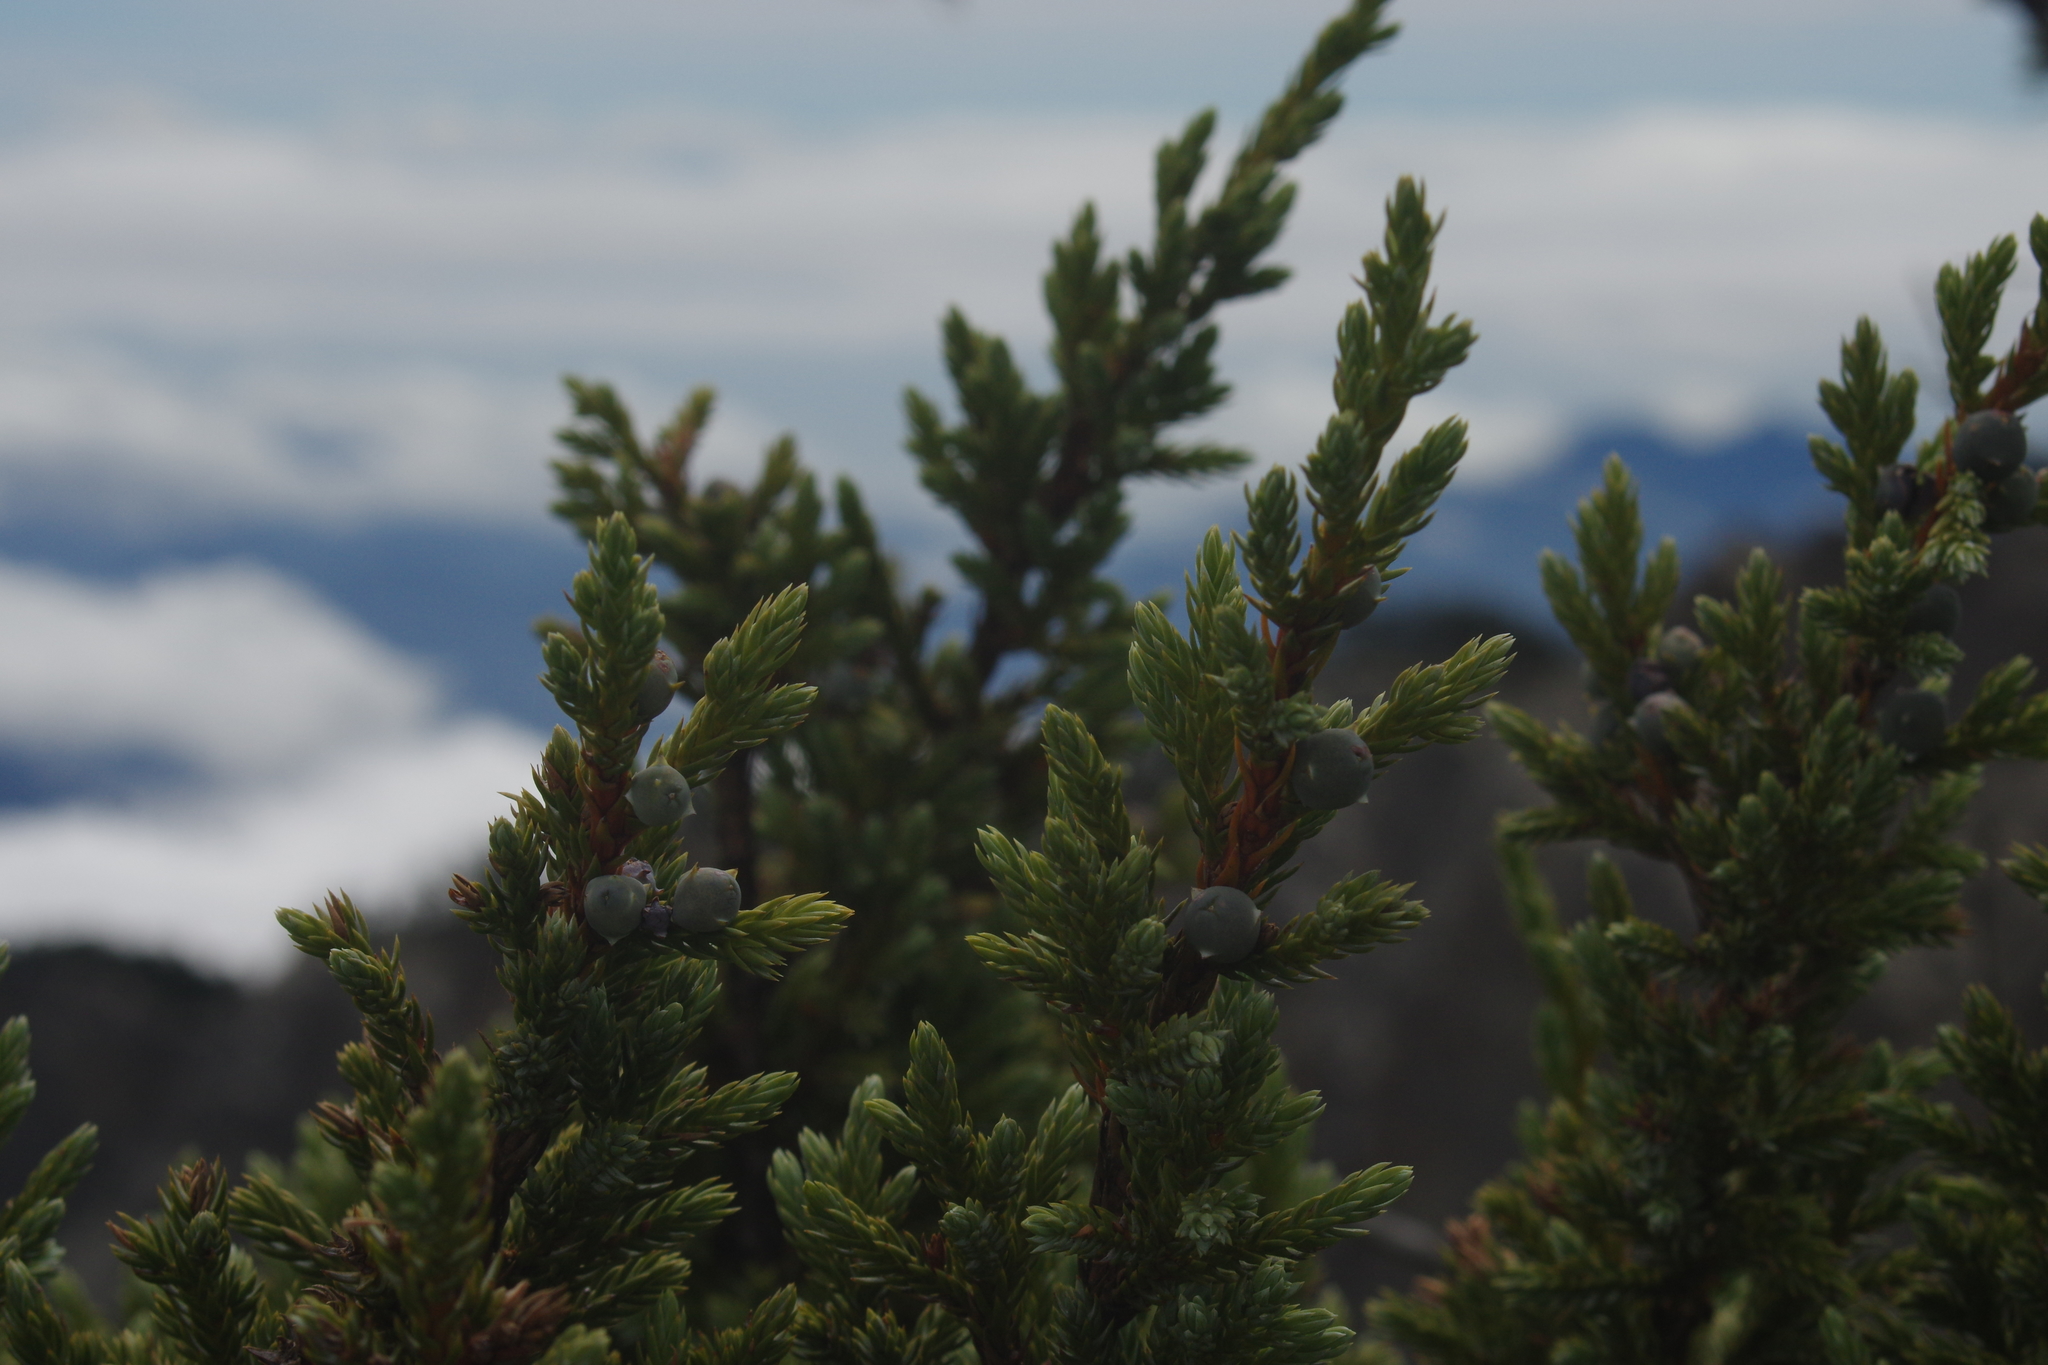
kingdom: Plantae
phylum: Tracheophyta
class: Pinopsida
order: Pinales
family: Cupressaceae
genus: Juniperus
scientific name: Juniperus squamata
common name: Flaky juniper
